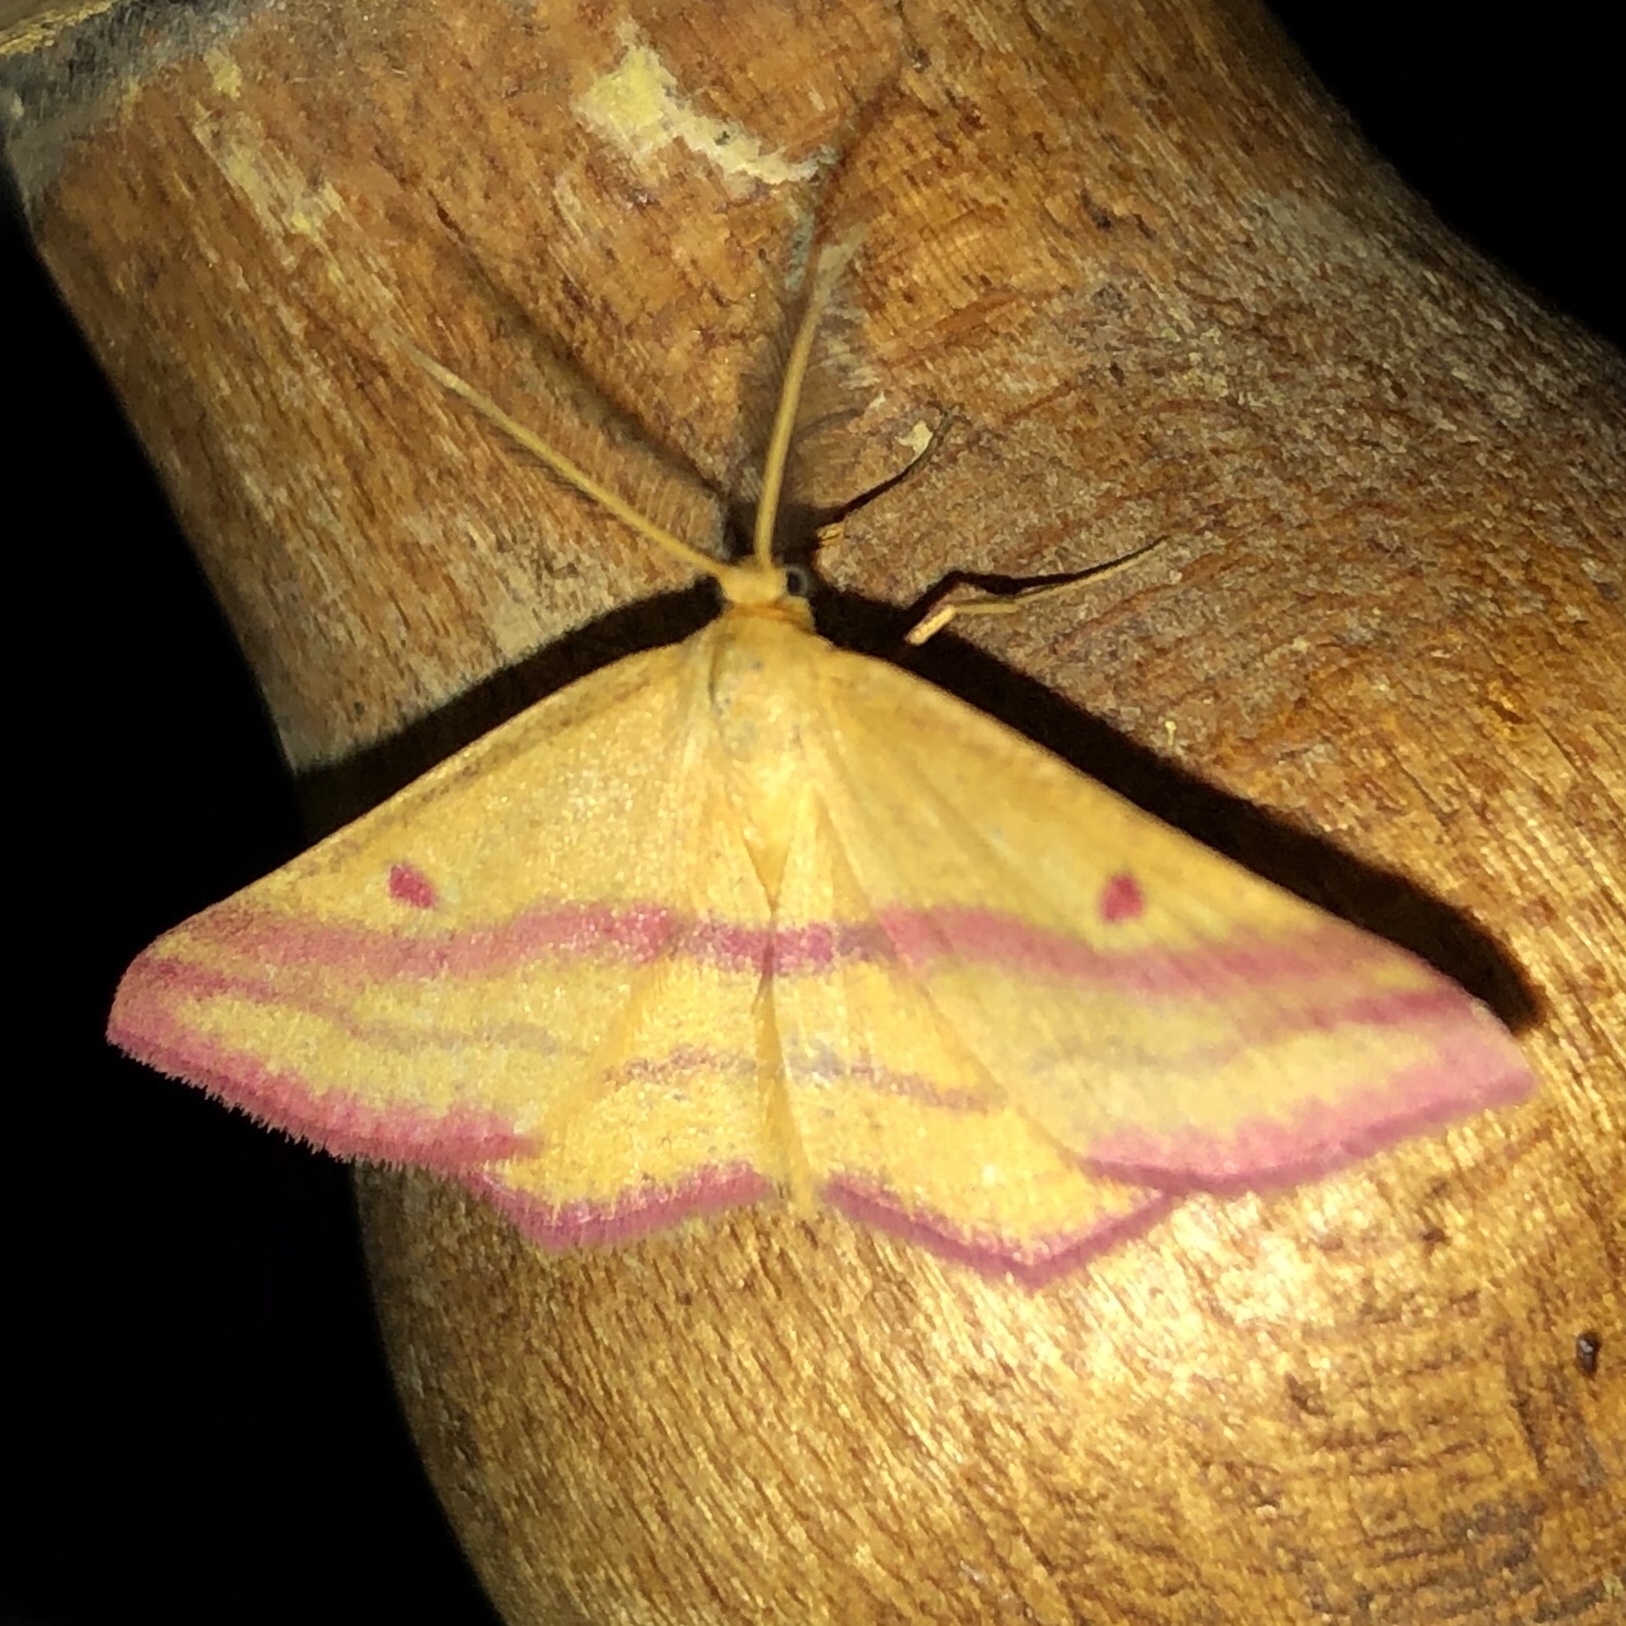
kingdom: Animalia
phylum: Arthropoda
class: Insecta
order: Lepidoptera
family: Geometridae
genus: Haematopis
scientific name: Haematopis grataria
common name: Chickweed geometer
